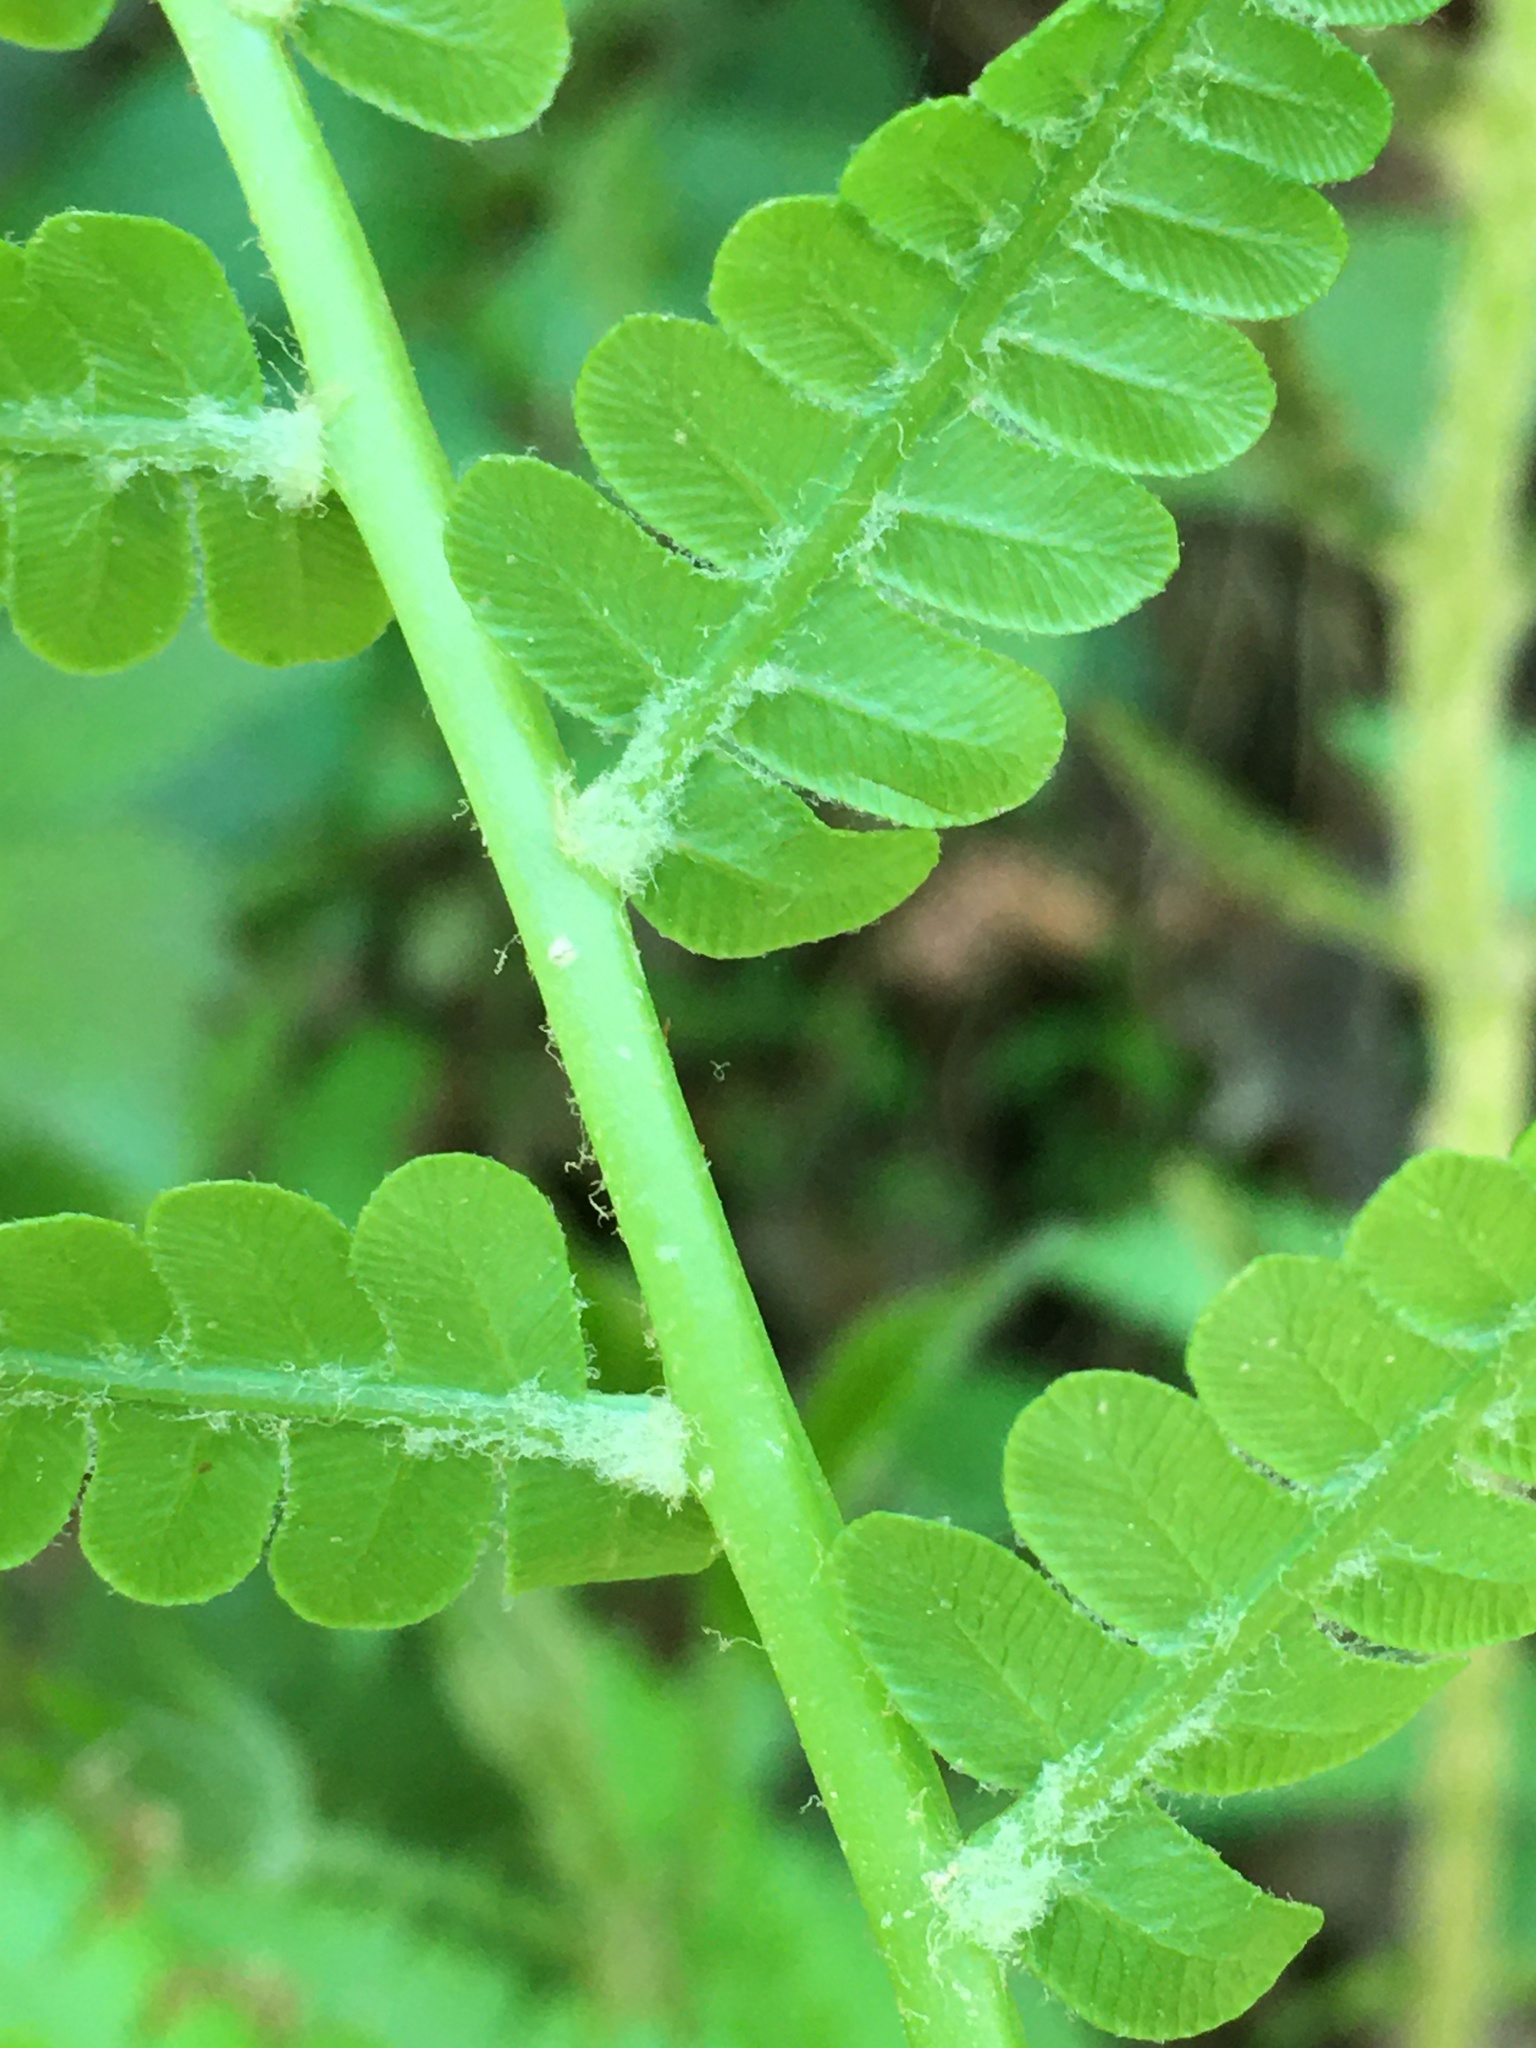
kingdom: Plantae
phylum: Tracheophyta
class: Polypodiopsida
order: Osmundales
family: Osmundaceae
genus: Osmundastrum
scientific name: Osmundastrum cinnamomeum
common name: Cinnamon fern
